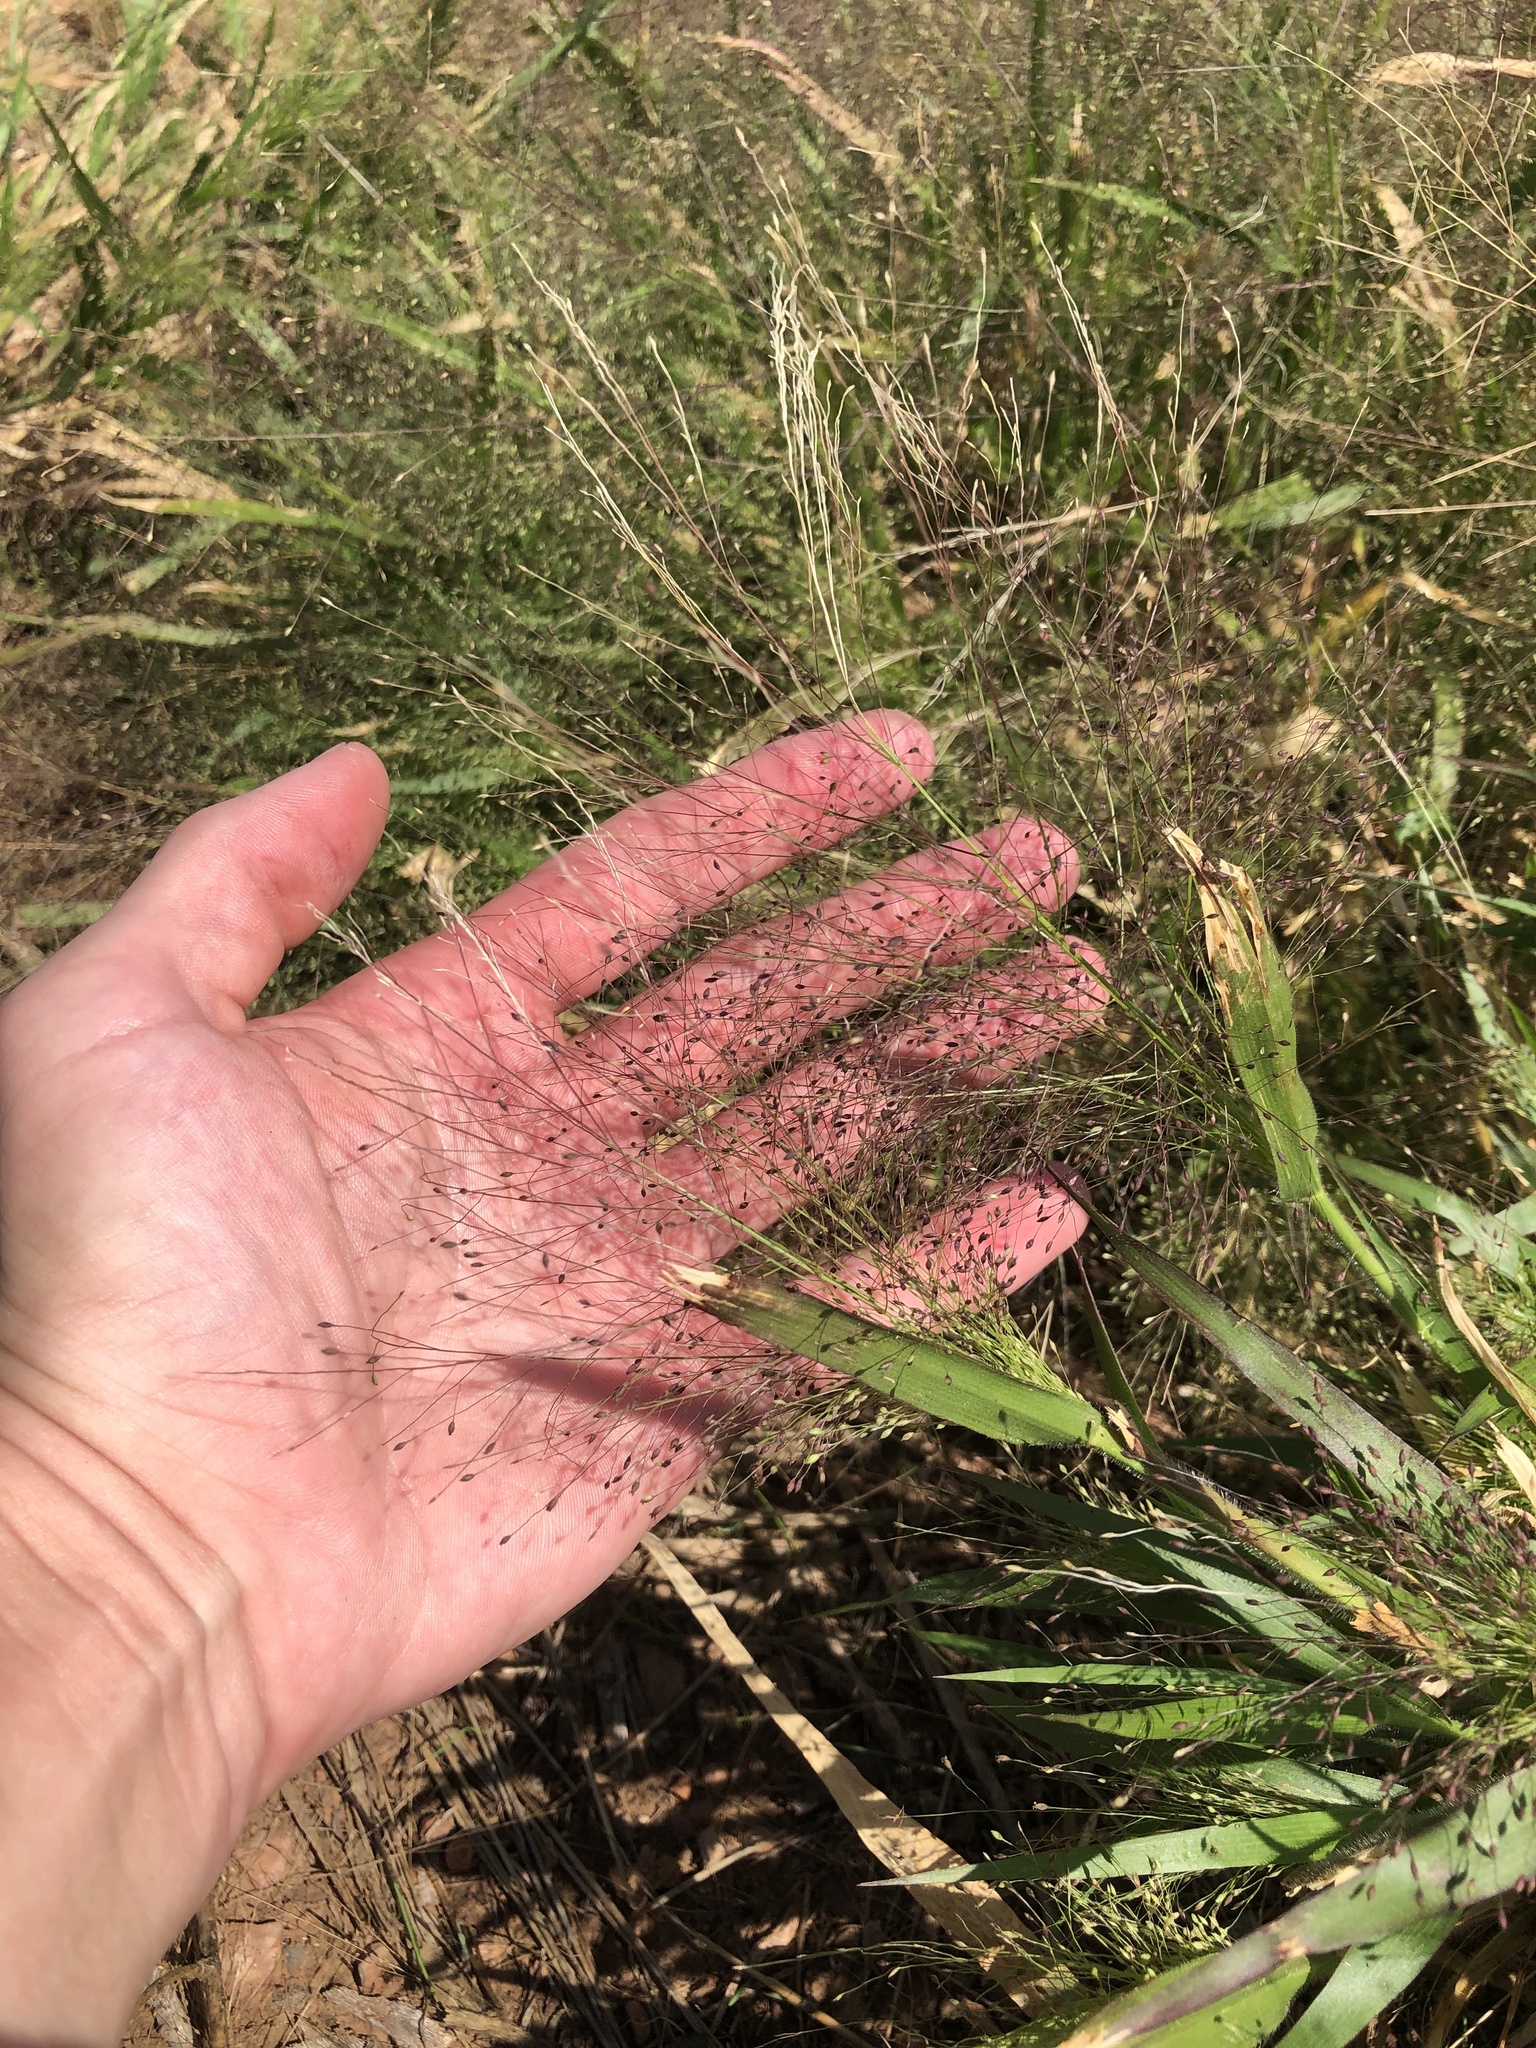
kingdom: Plantae
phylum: Tracheophyta
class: Liliopsida
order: Poales
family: Poaceae
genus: Panicum
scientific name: Panicum capillare
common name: Witch-grass
